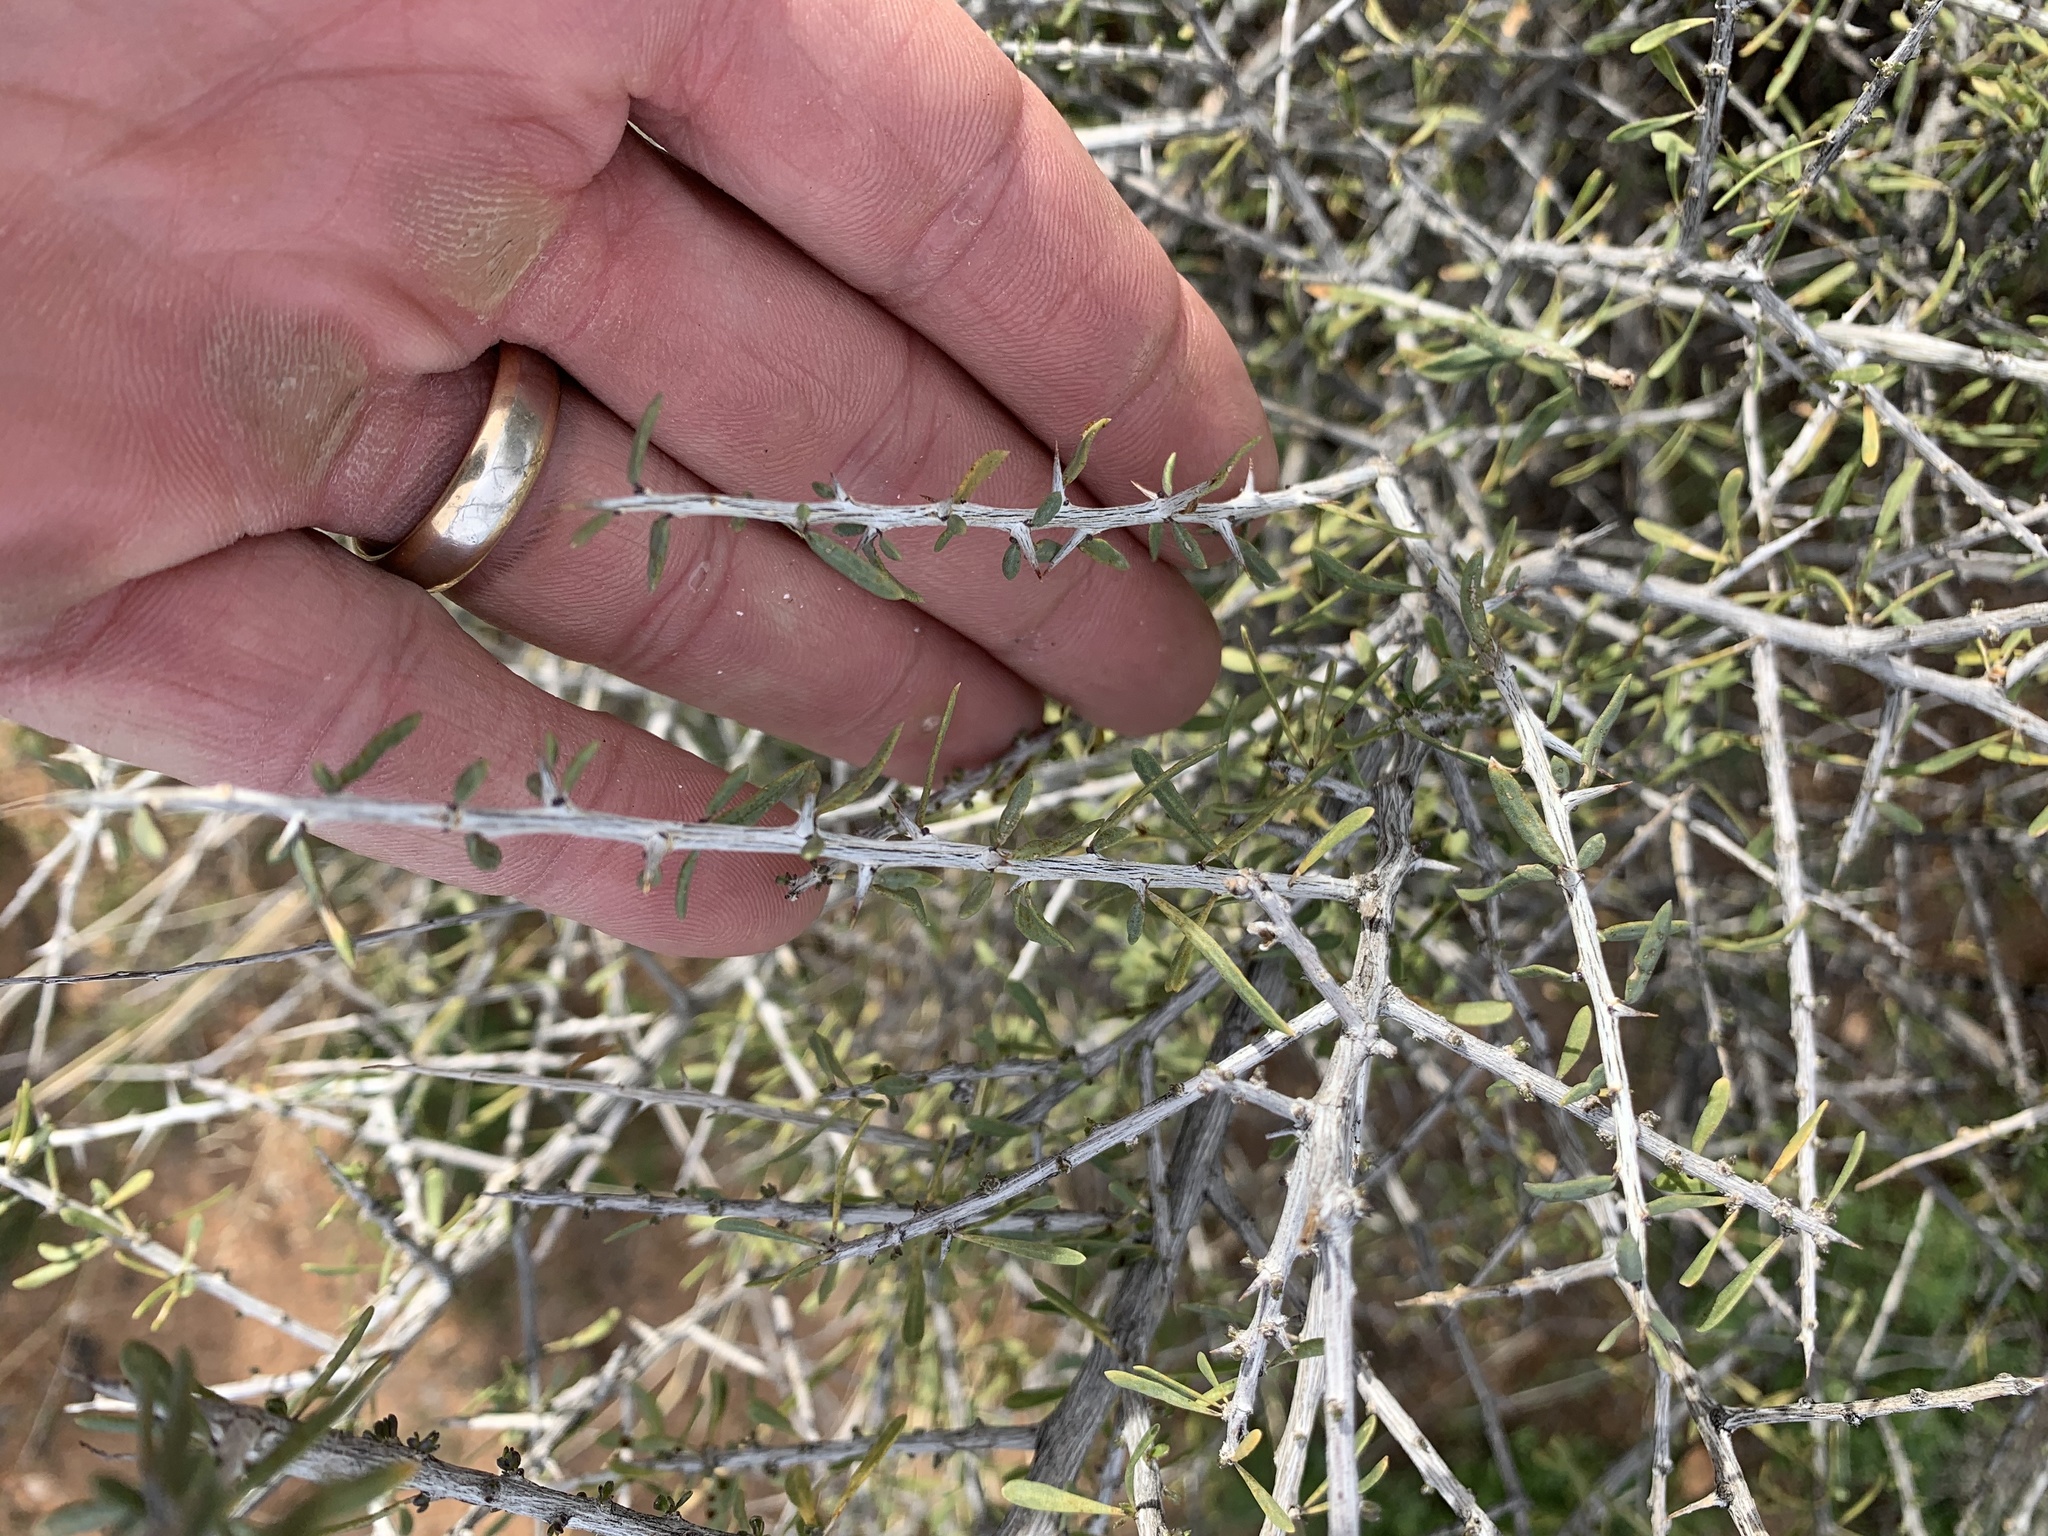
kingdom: Plantae
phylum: Tracheophyta
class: Magnoliopsida
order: Solanales
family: Solanaceae
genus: Lycium
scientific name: Lycium andersonii
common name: Water-jacket
